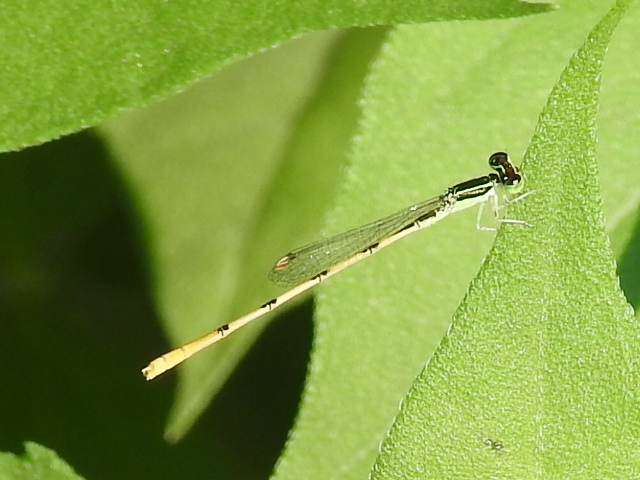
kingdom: Animalia
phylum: Arthropoda
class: Insecta
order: Odonata
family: Coenagrionidae
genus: Ischnura
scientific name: Ischnura hastata
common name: Citrine forktail
